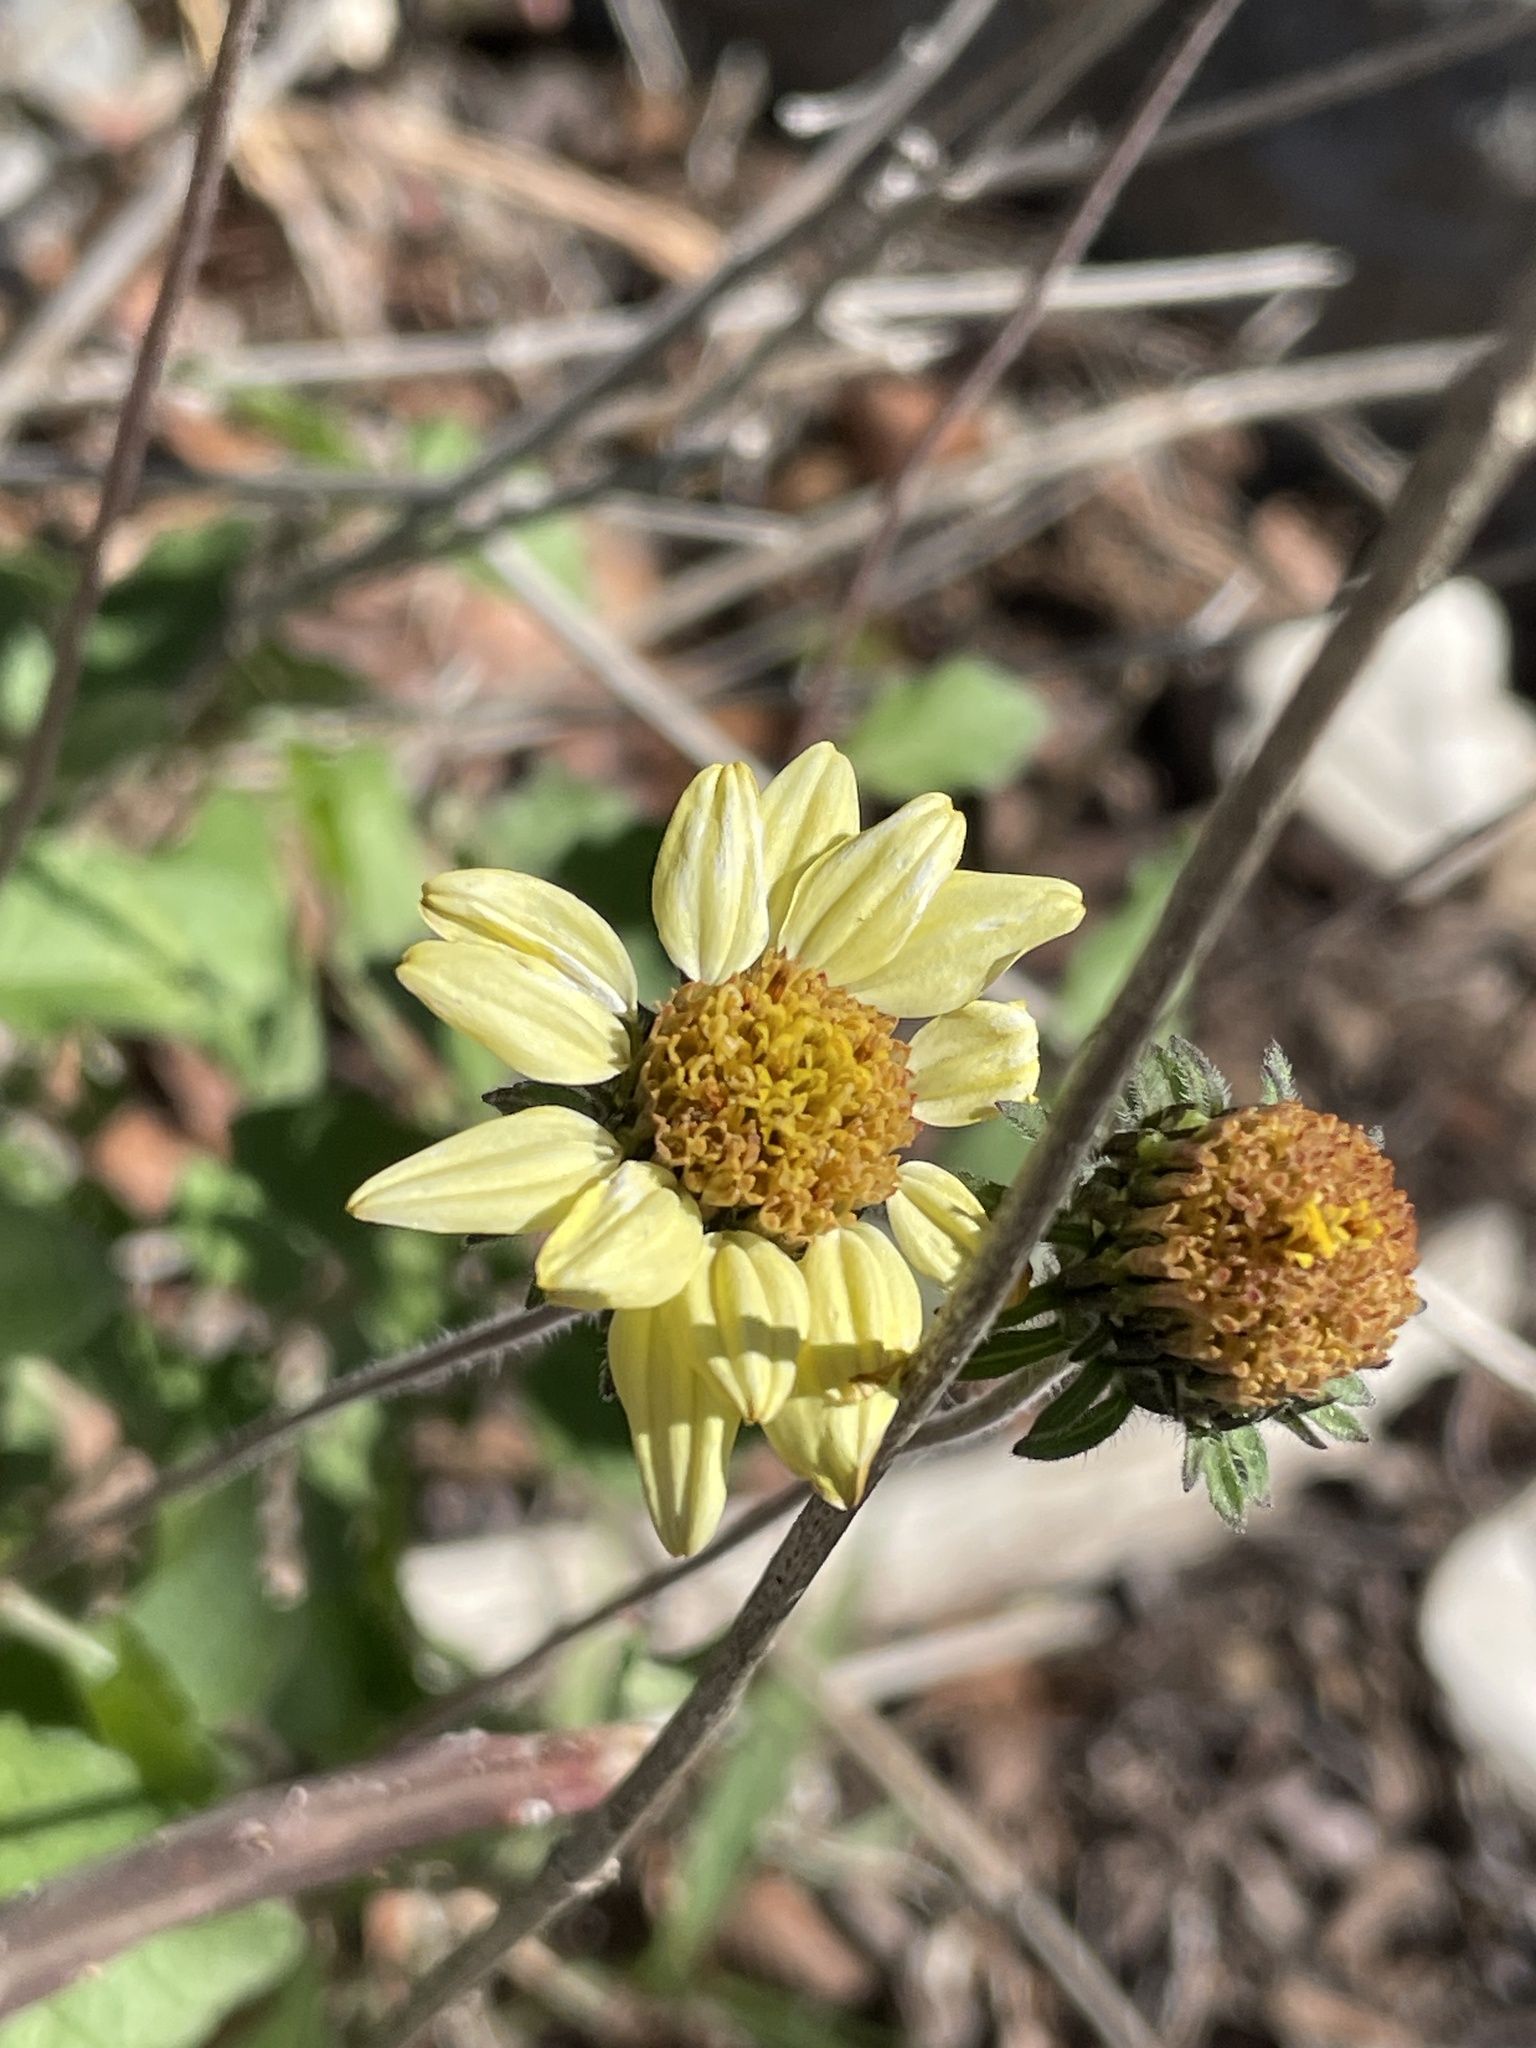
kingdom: Plantae
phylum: Tracheophyta
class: Magnoliopsida
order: Asterales
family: Asteraceae
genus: Simsia
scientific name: Simsia calva
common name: Awnless bush-sunflower
